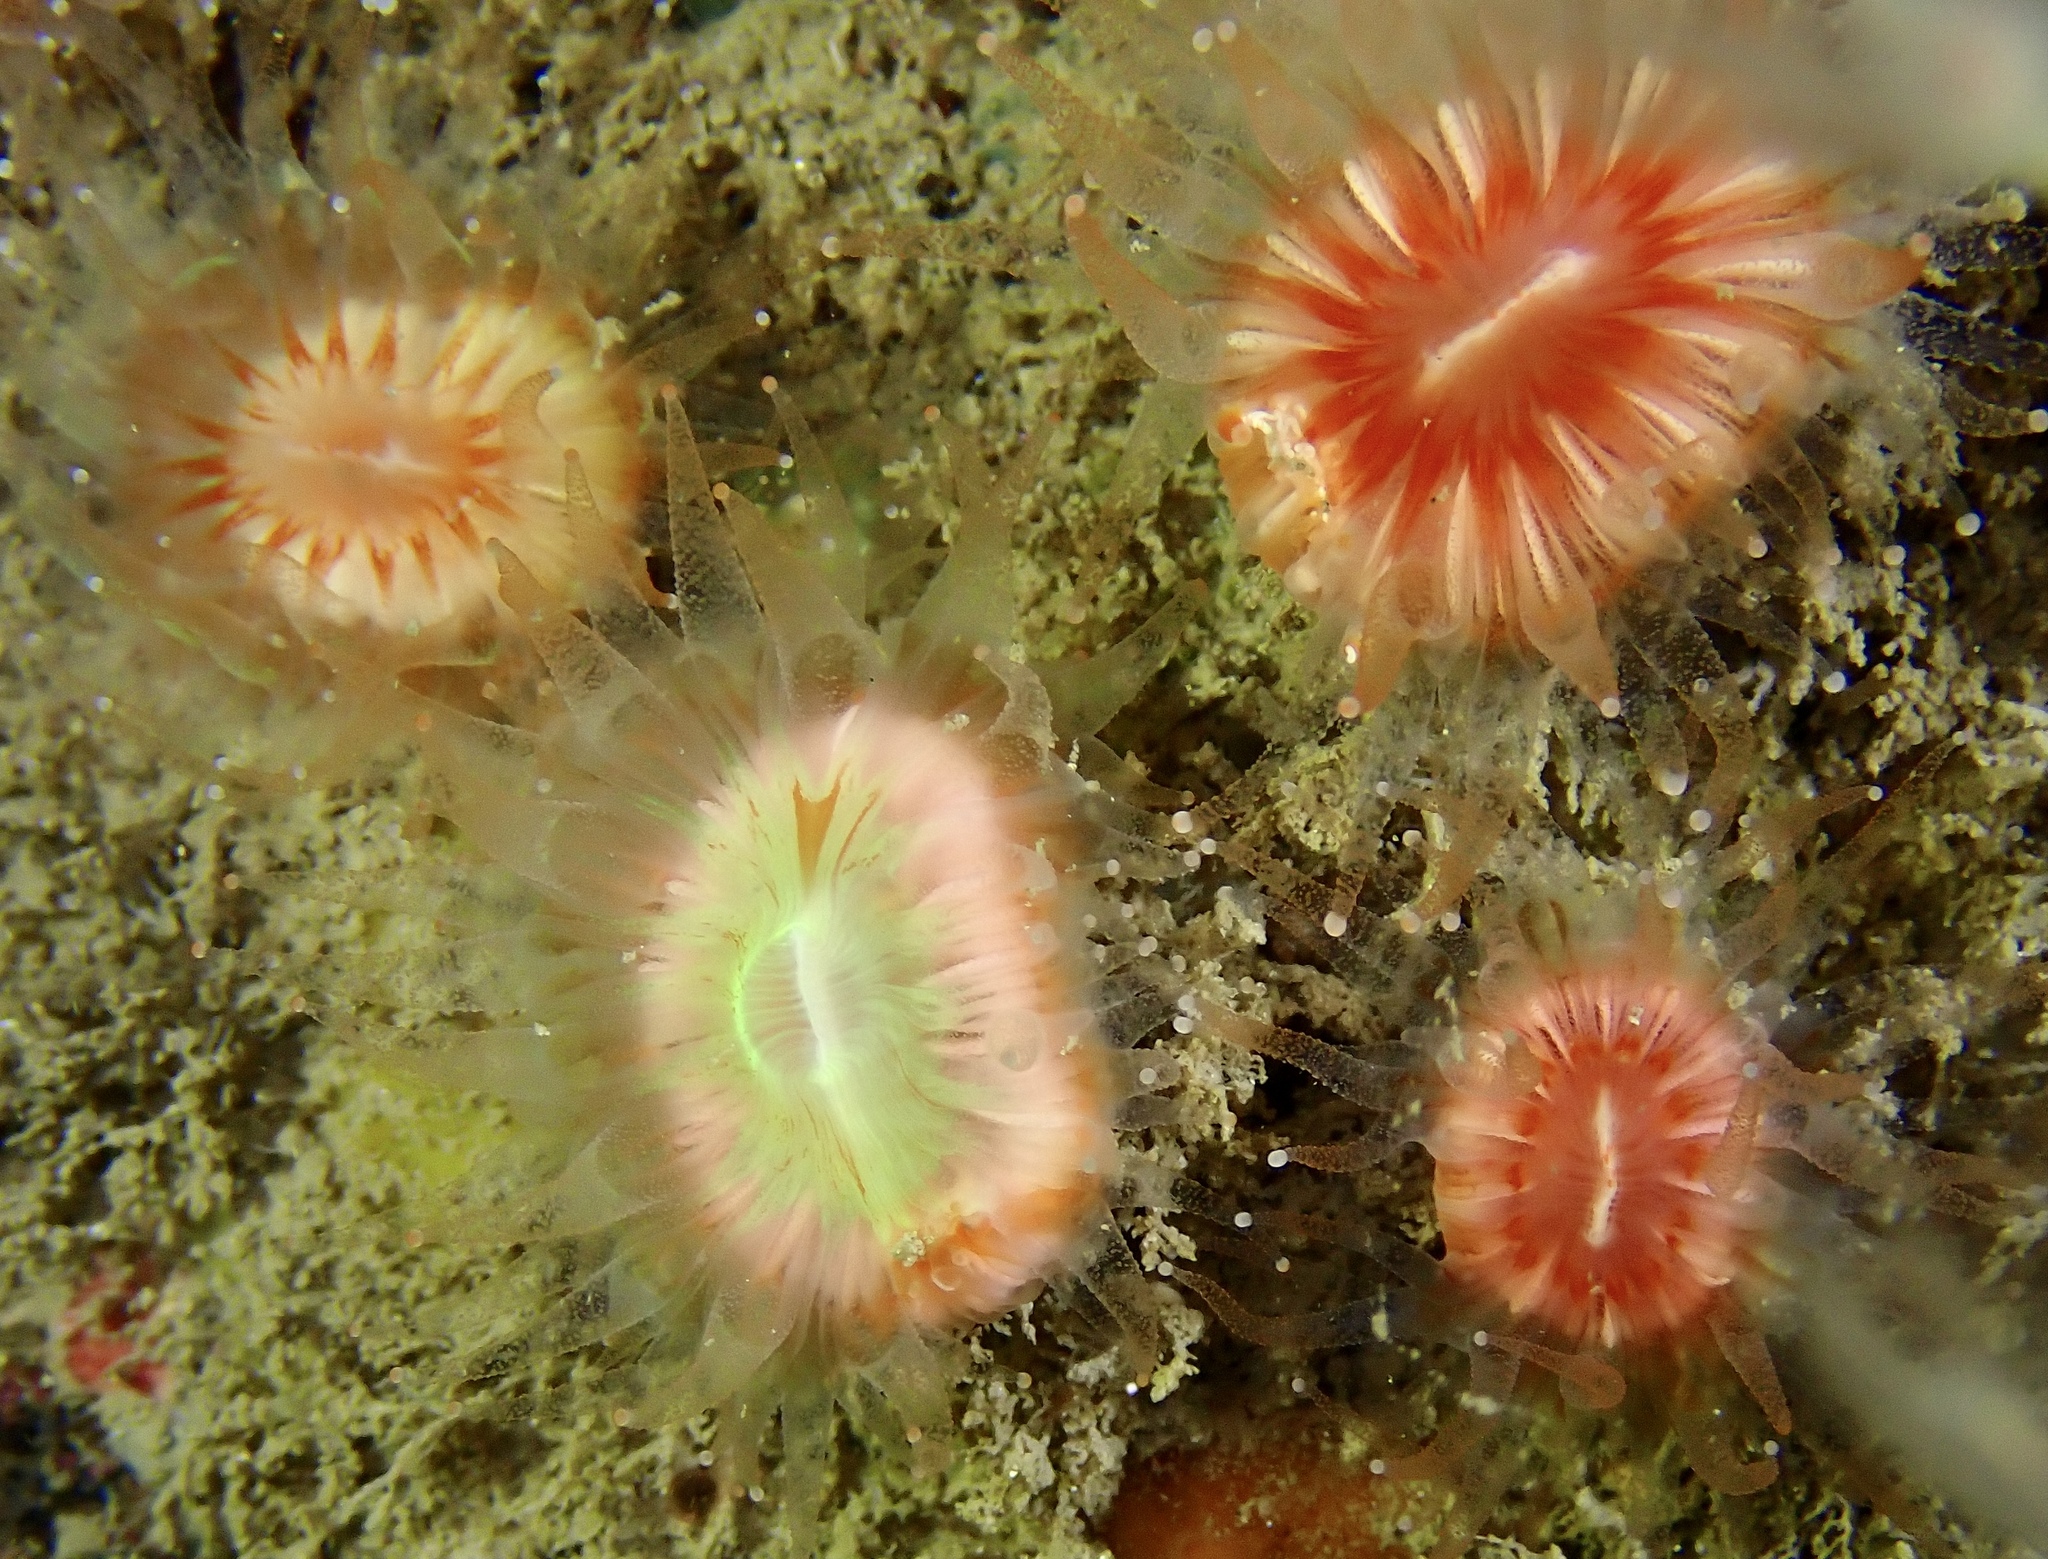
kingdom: Animalia
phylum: Cnidaria
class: Anthozoa
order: Scleractinia
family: Caryophylliidae
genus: Caryophyllia
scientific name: Caryophyllia smithii
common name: Devonshire cup coral
